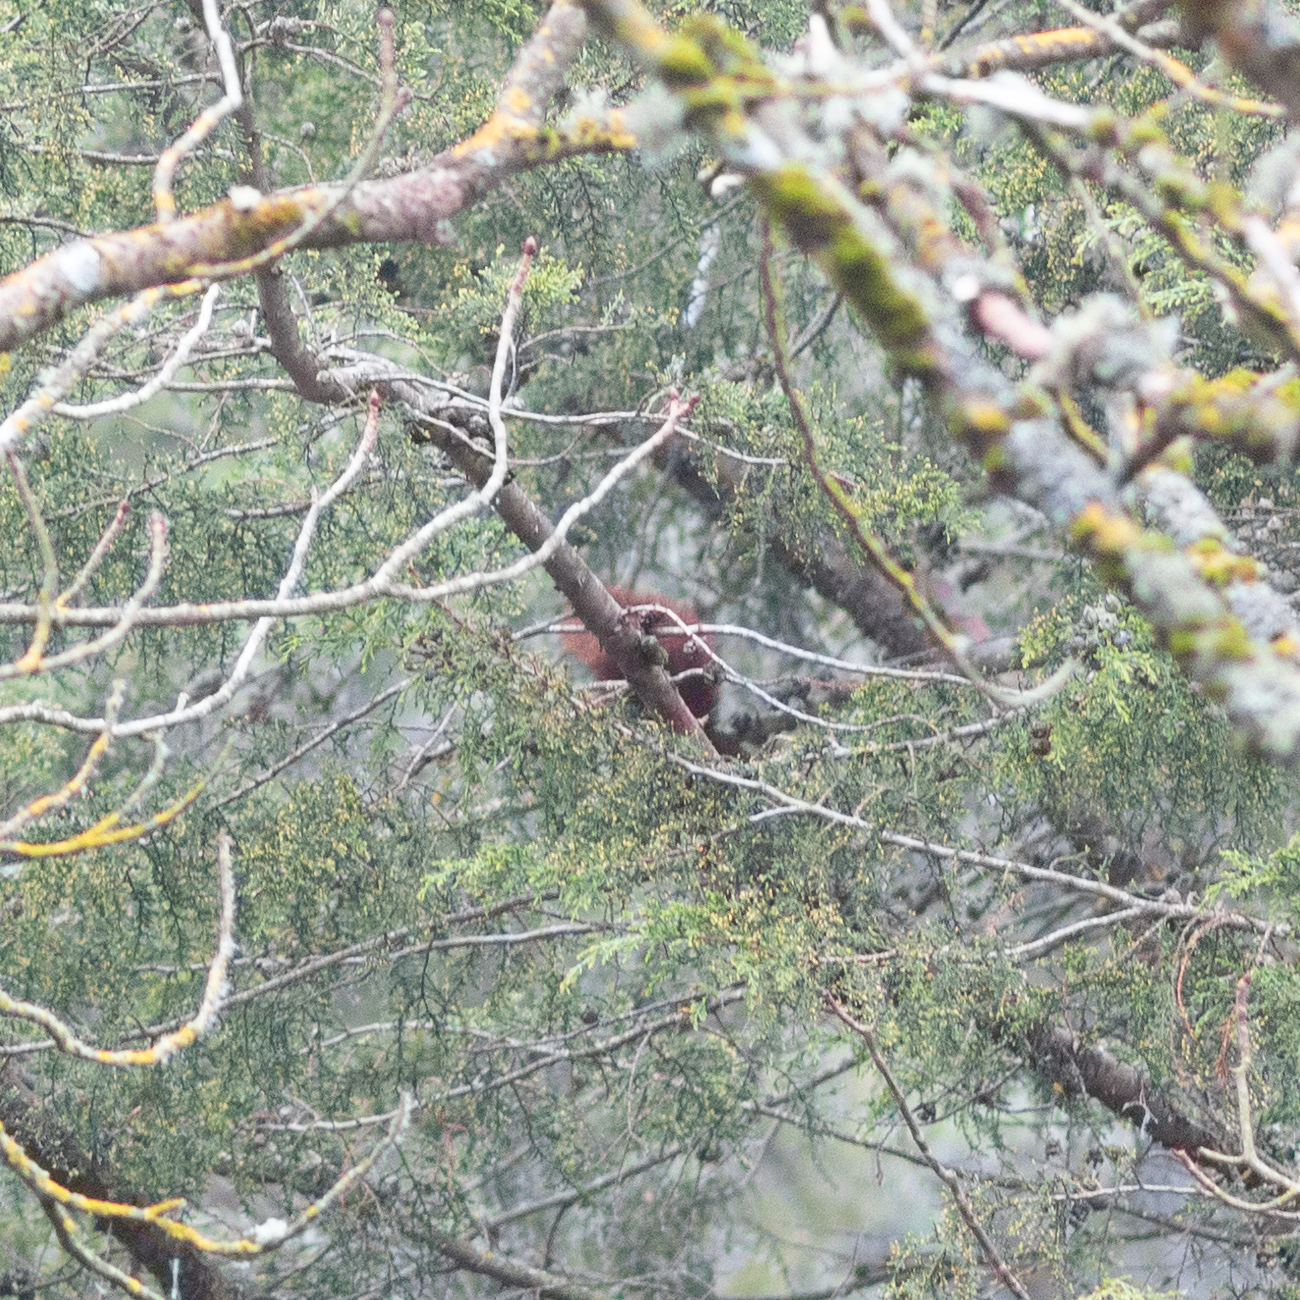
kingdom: Animalia
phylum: Chordata
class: Mammalia
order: Rodentia
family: Sciuridae
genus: Sciurus
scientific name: Sciurus vulgaris
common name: Eurasian red squirrel
